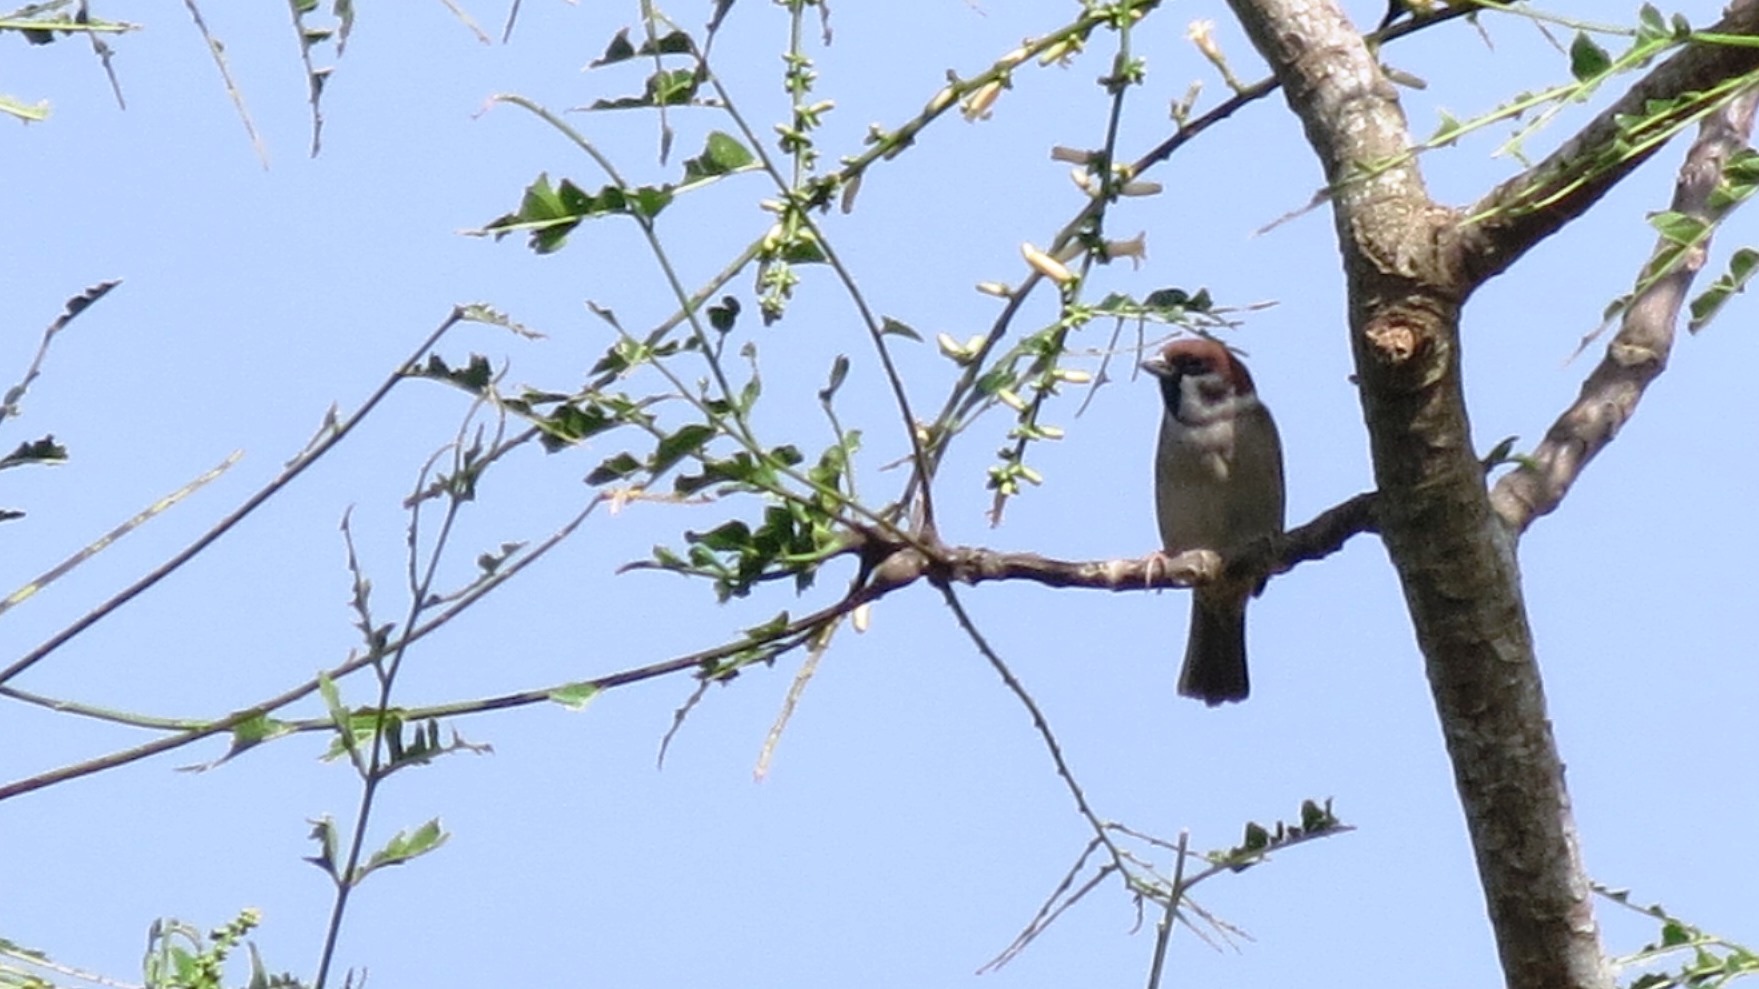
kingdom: Animalia
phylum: Chordata
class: Aves
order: Passeriformes
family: Passeridae
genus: Passer
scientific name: Passer montanus
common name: Eurasian tree sparrow
